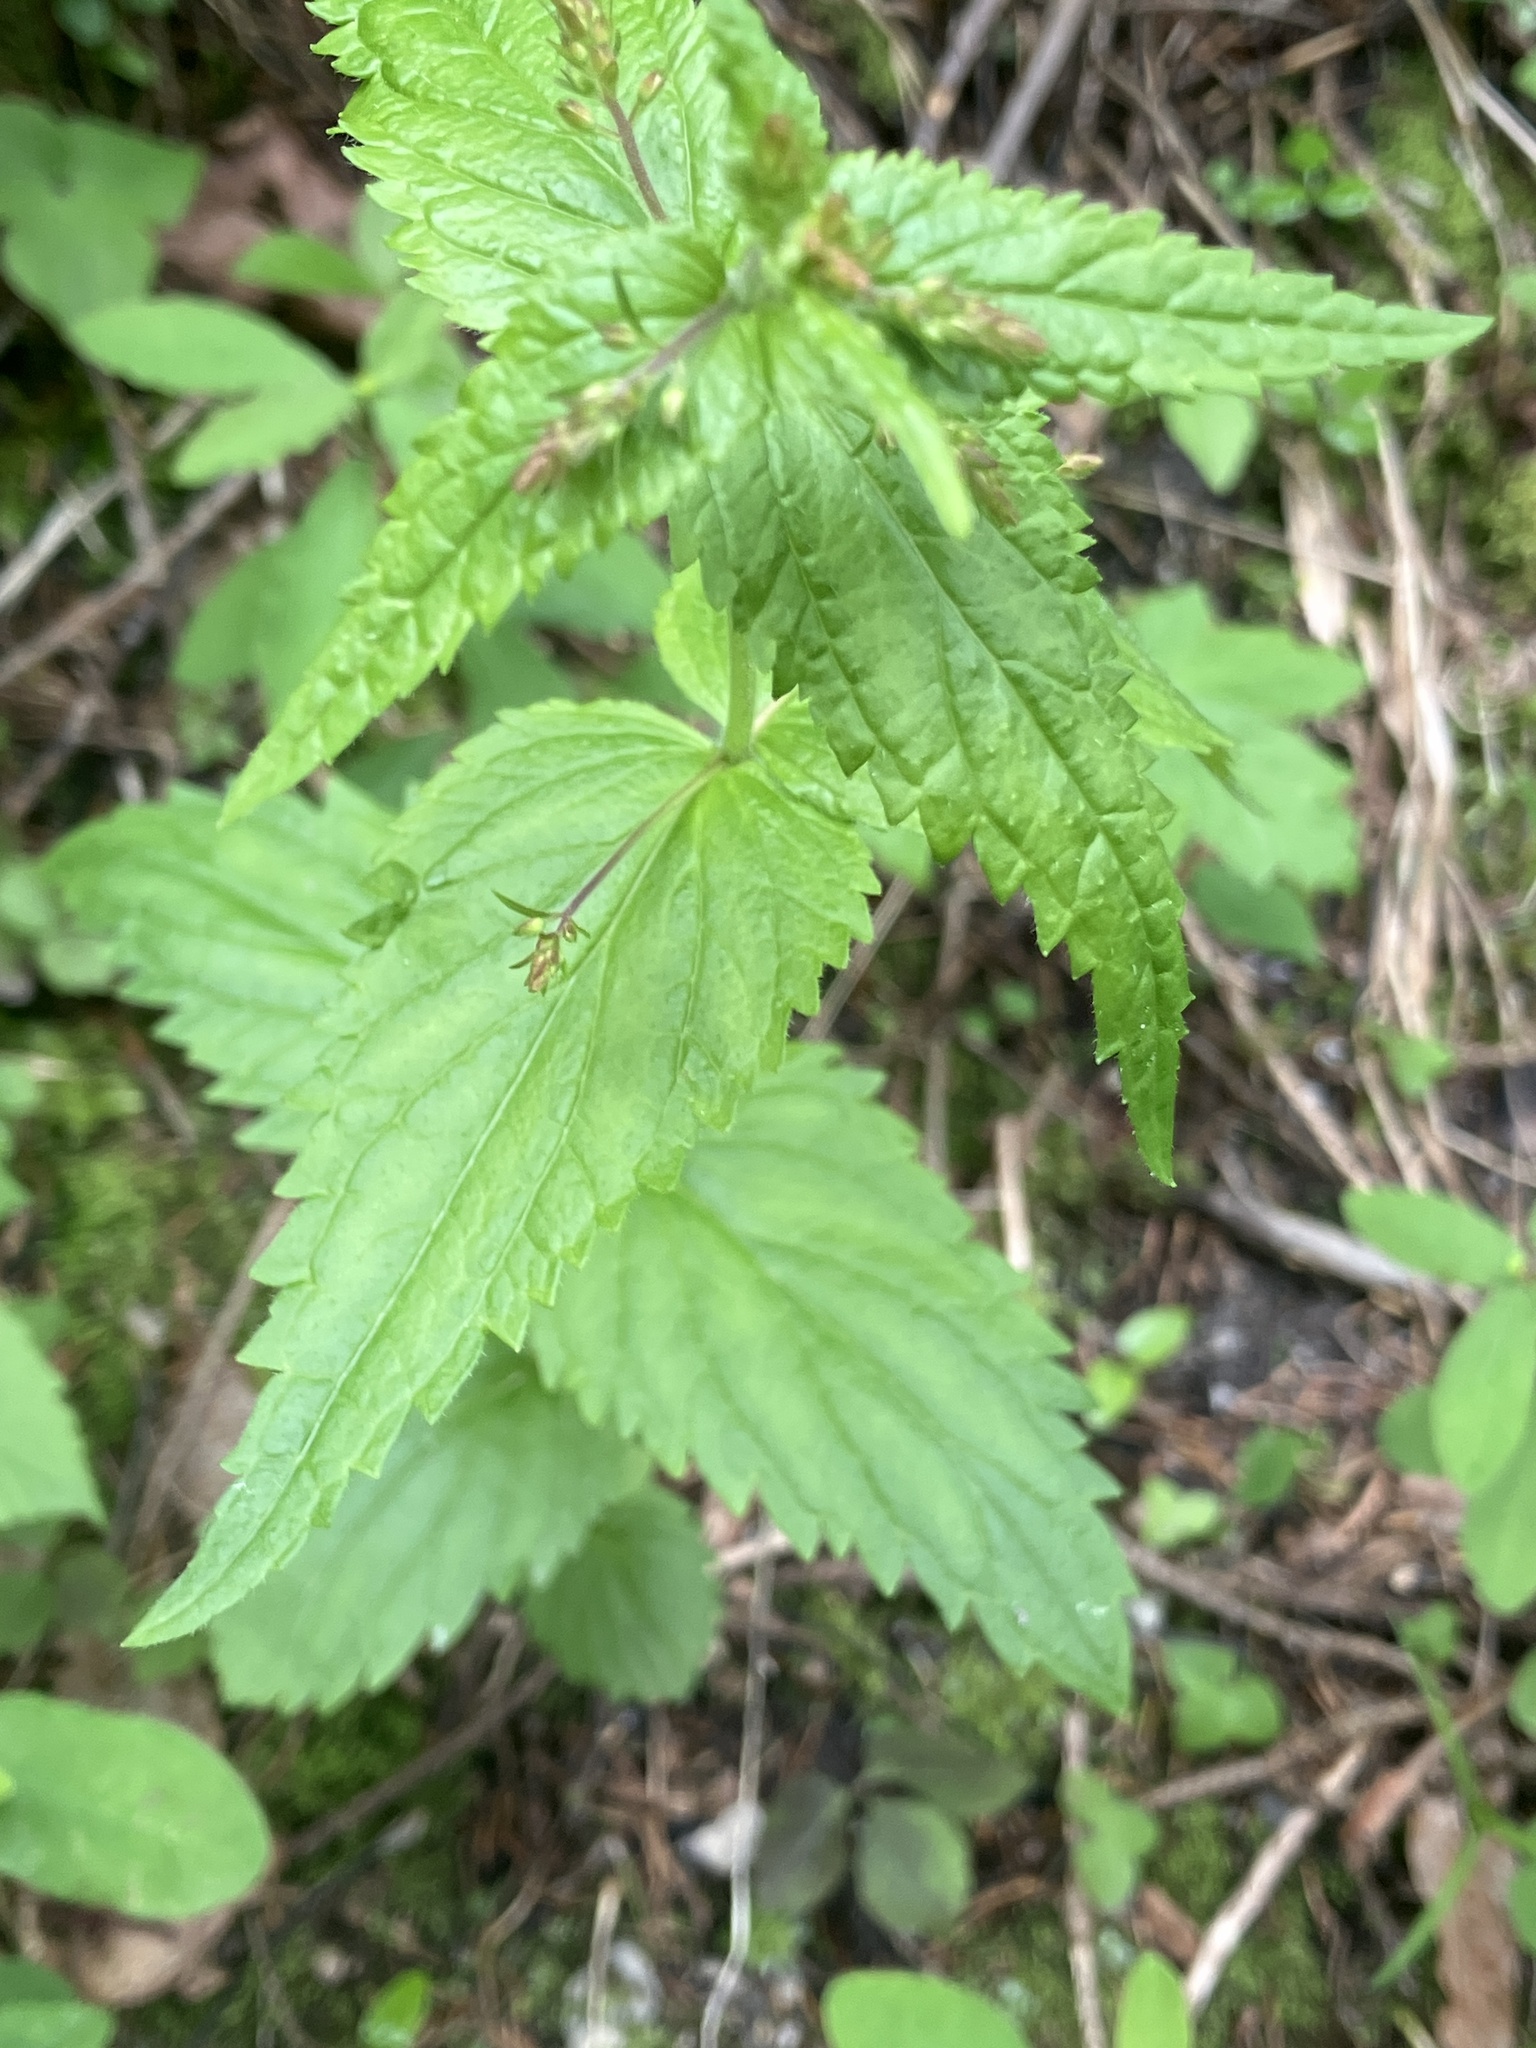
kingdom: Plantae
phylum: Tracheophyta
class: Magnoliopsida
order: Lamiales
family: Plantaginaceae
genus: Veronica
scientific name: Veronica urticifolia
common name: Nettle-leaf speedwell
